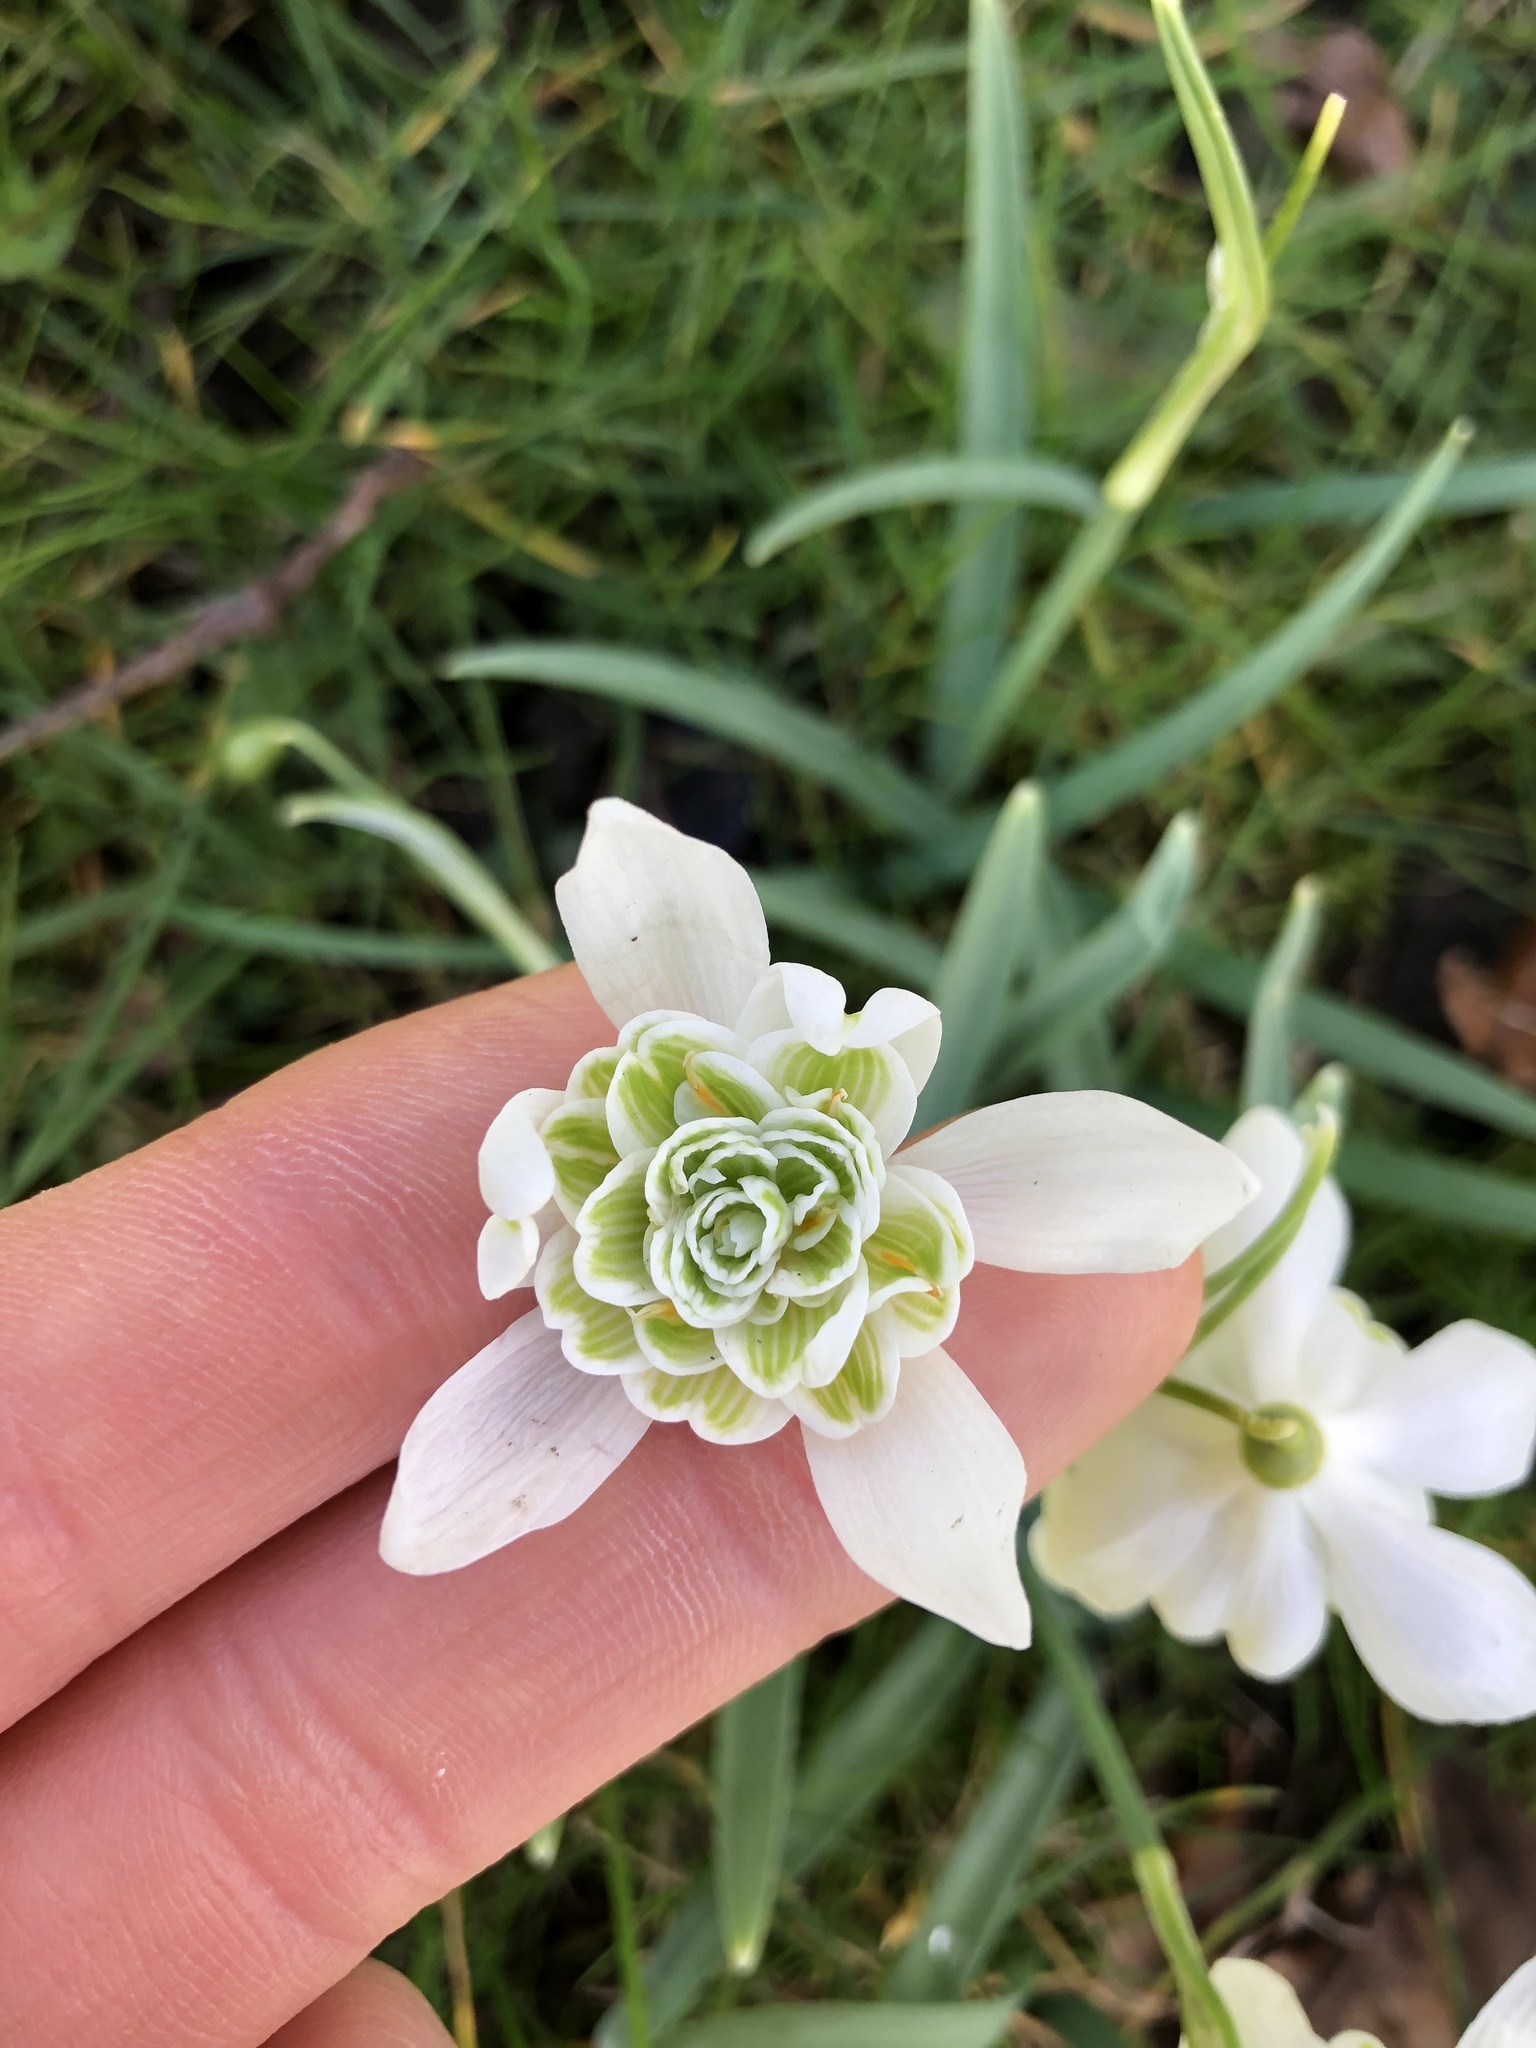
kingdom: Plantae
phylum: Tracheophyta
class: Liliopsida
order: Asparagales
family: Amaryllidaceae
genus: Galanthus
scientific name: Galanthus nivalis
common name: Snowdrop
